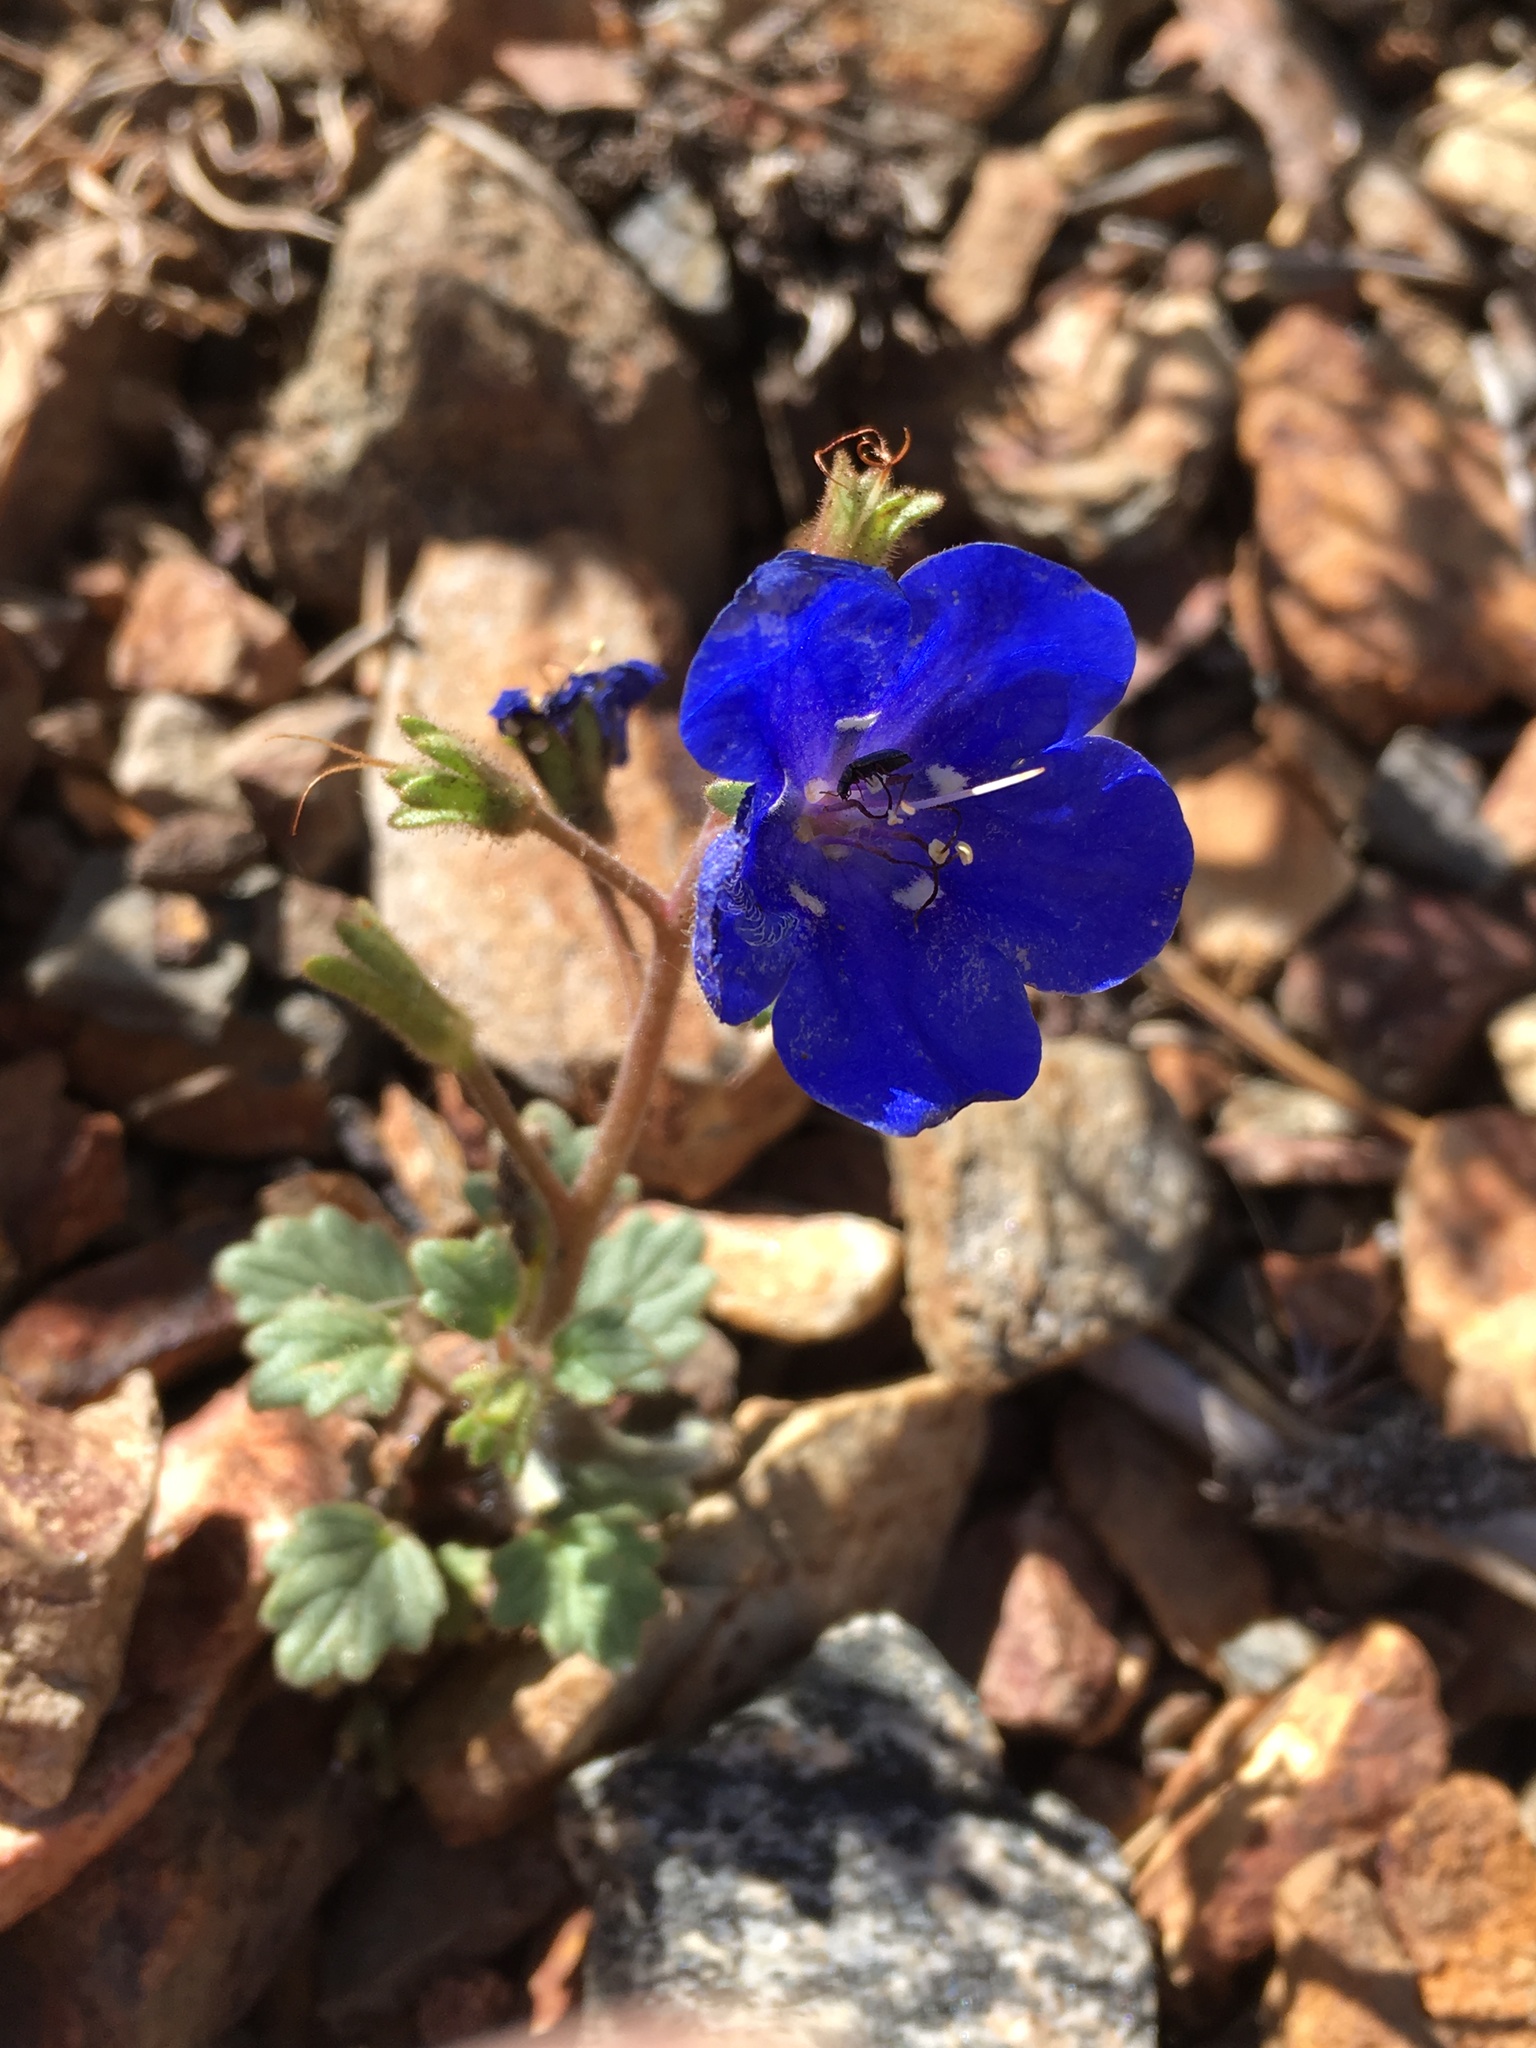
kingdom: Plantae
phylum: Tracheophyta
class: Magnoliopsida
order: Boraginales
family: Hydrophyllaceae
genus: Phacelia
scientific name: Phacelia nashiana
